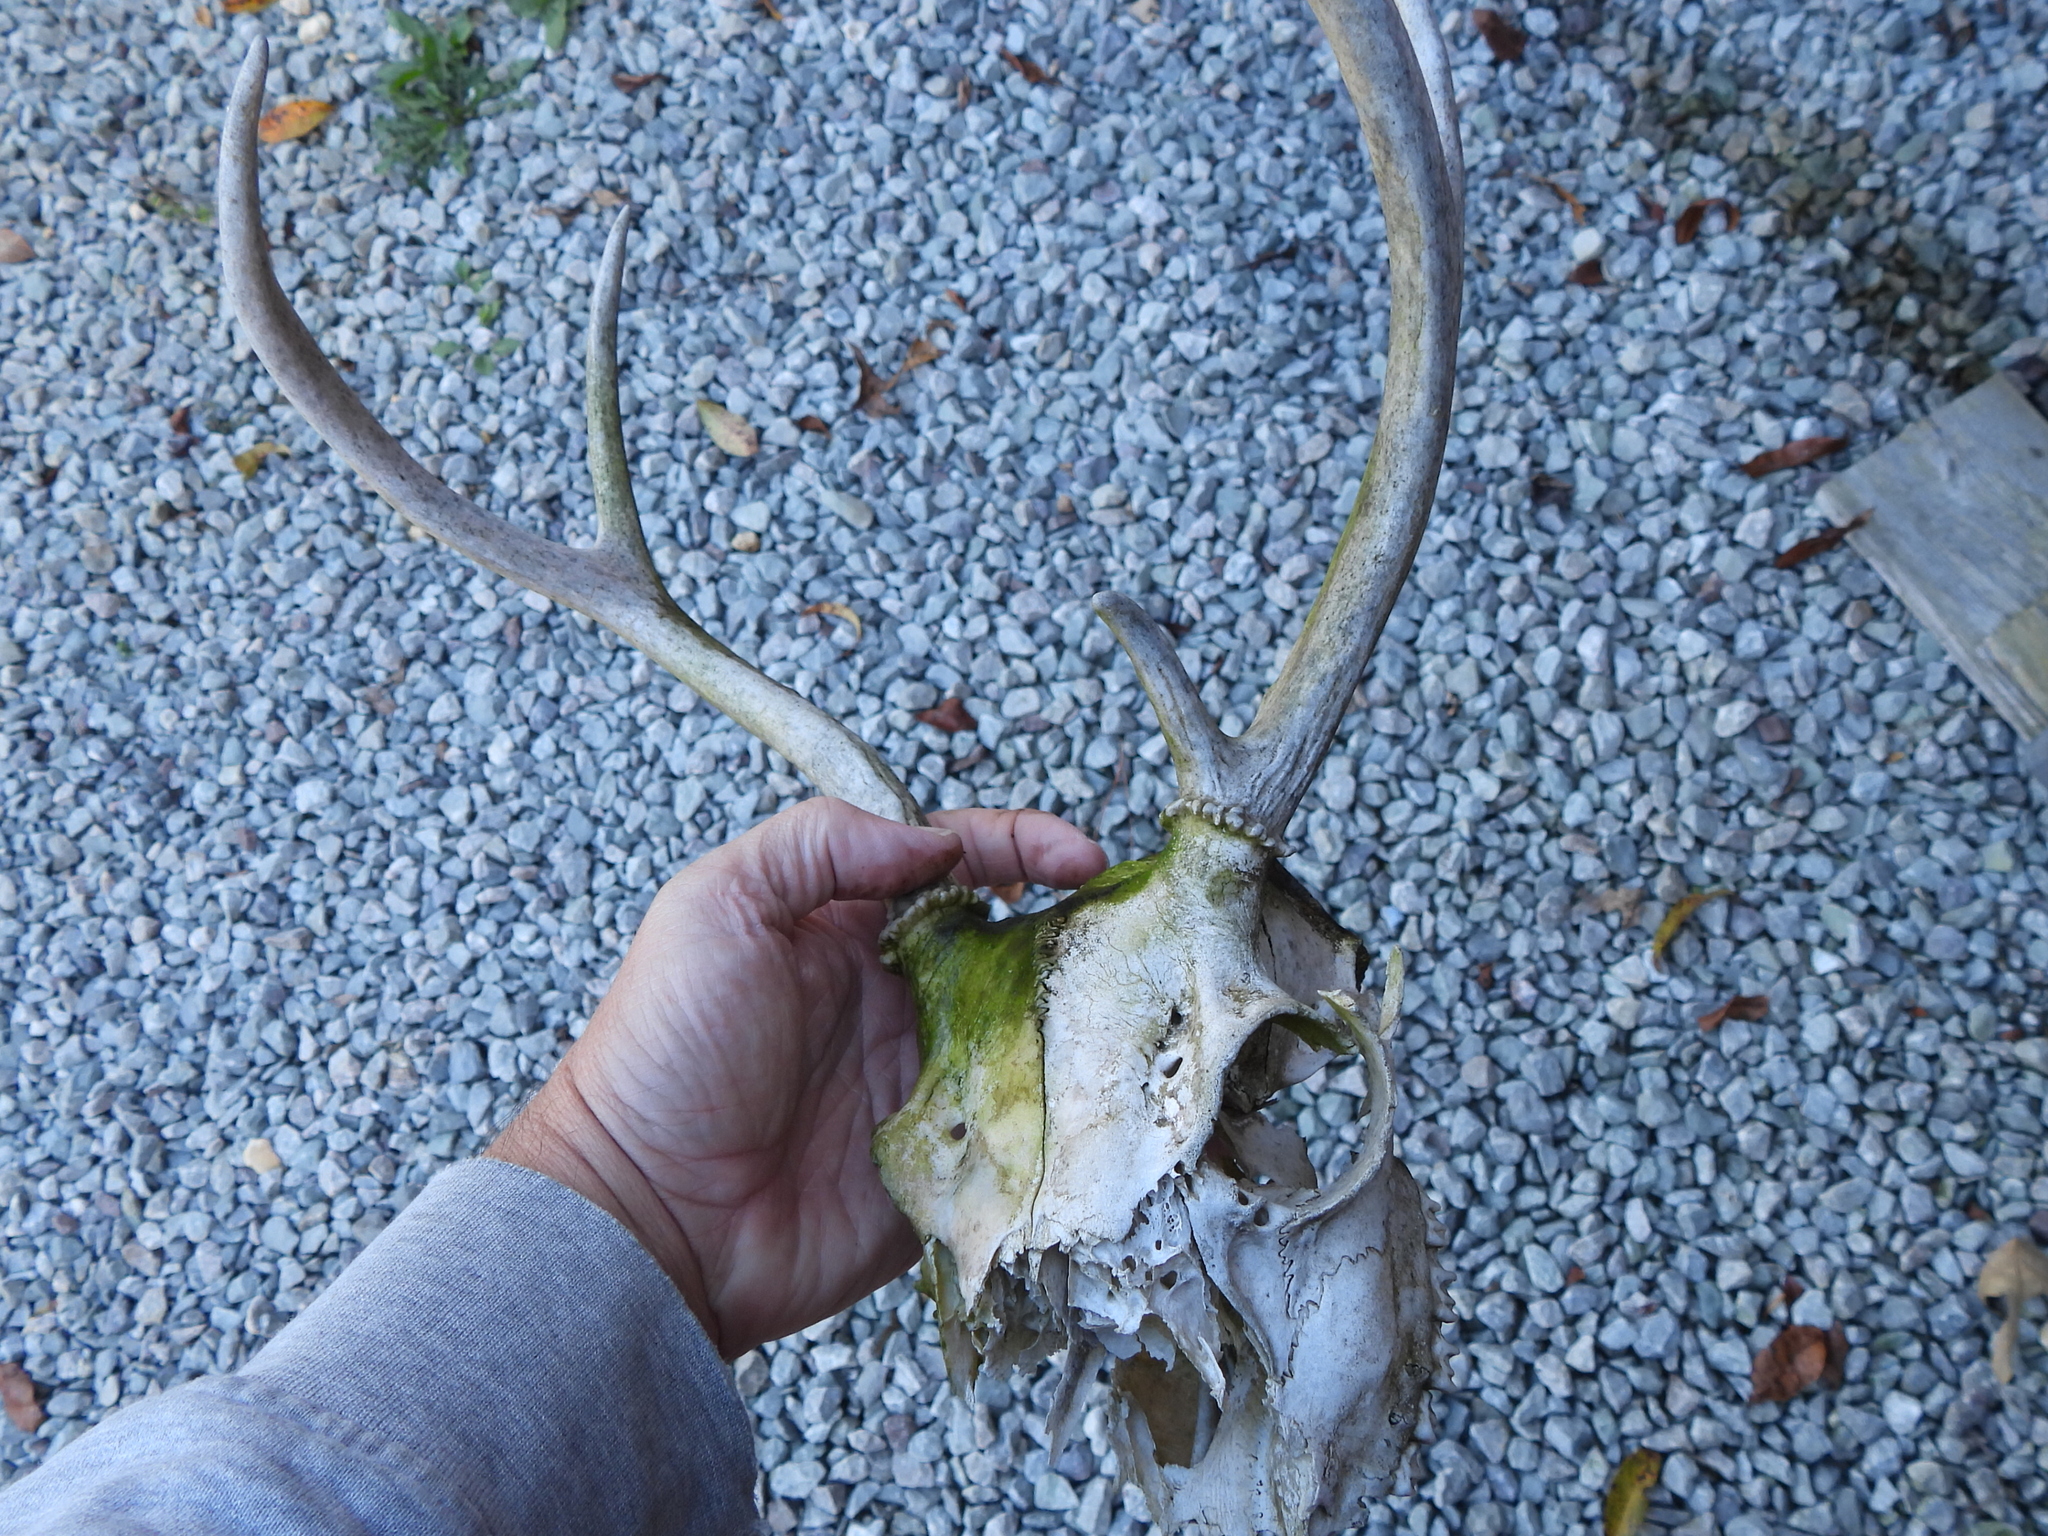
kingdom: Animalia
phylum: Chordata
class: Mammalia
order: Artiodactyla
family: Cervidae
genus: Odocoileus
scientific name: Odocoileus virginianus
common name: White-tailed deer
